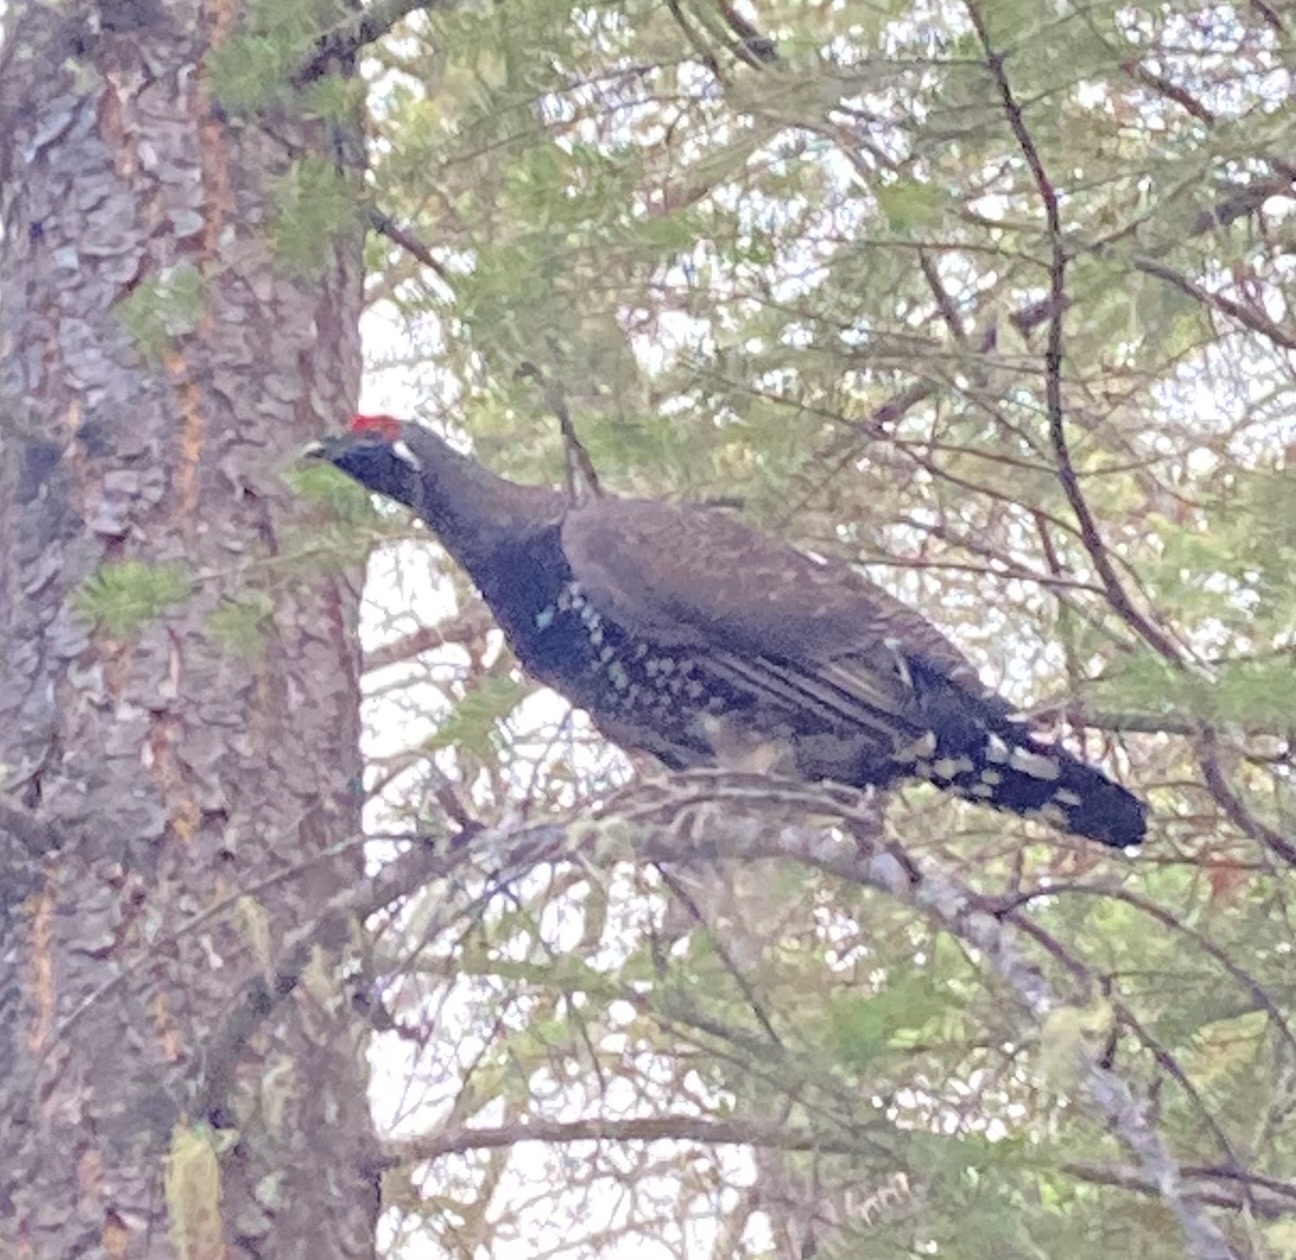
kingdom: Animalia
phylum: Chordata
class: Aves
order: Galliformes
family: Phasianidae
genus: Canachites
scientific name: Canachites canadensis
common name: Spruce grouse
